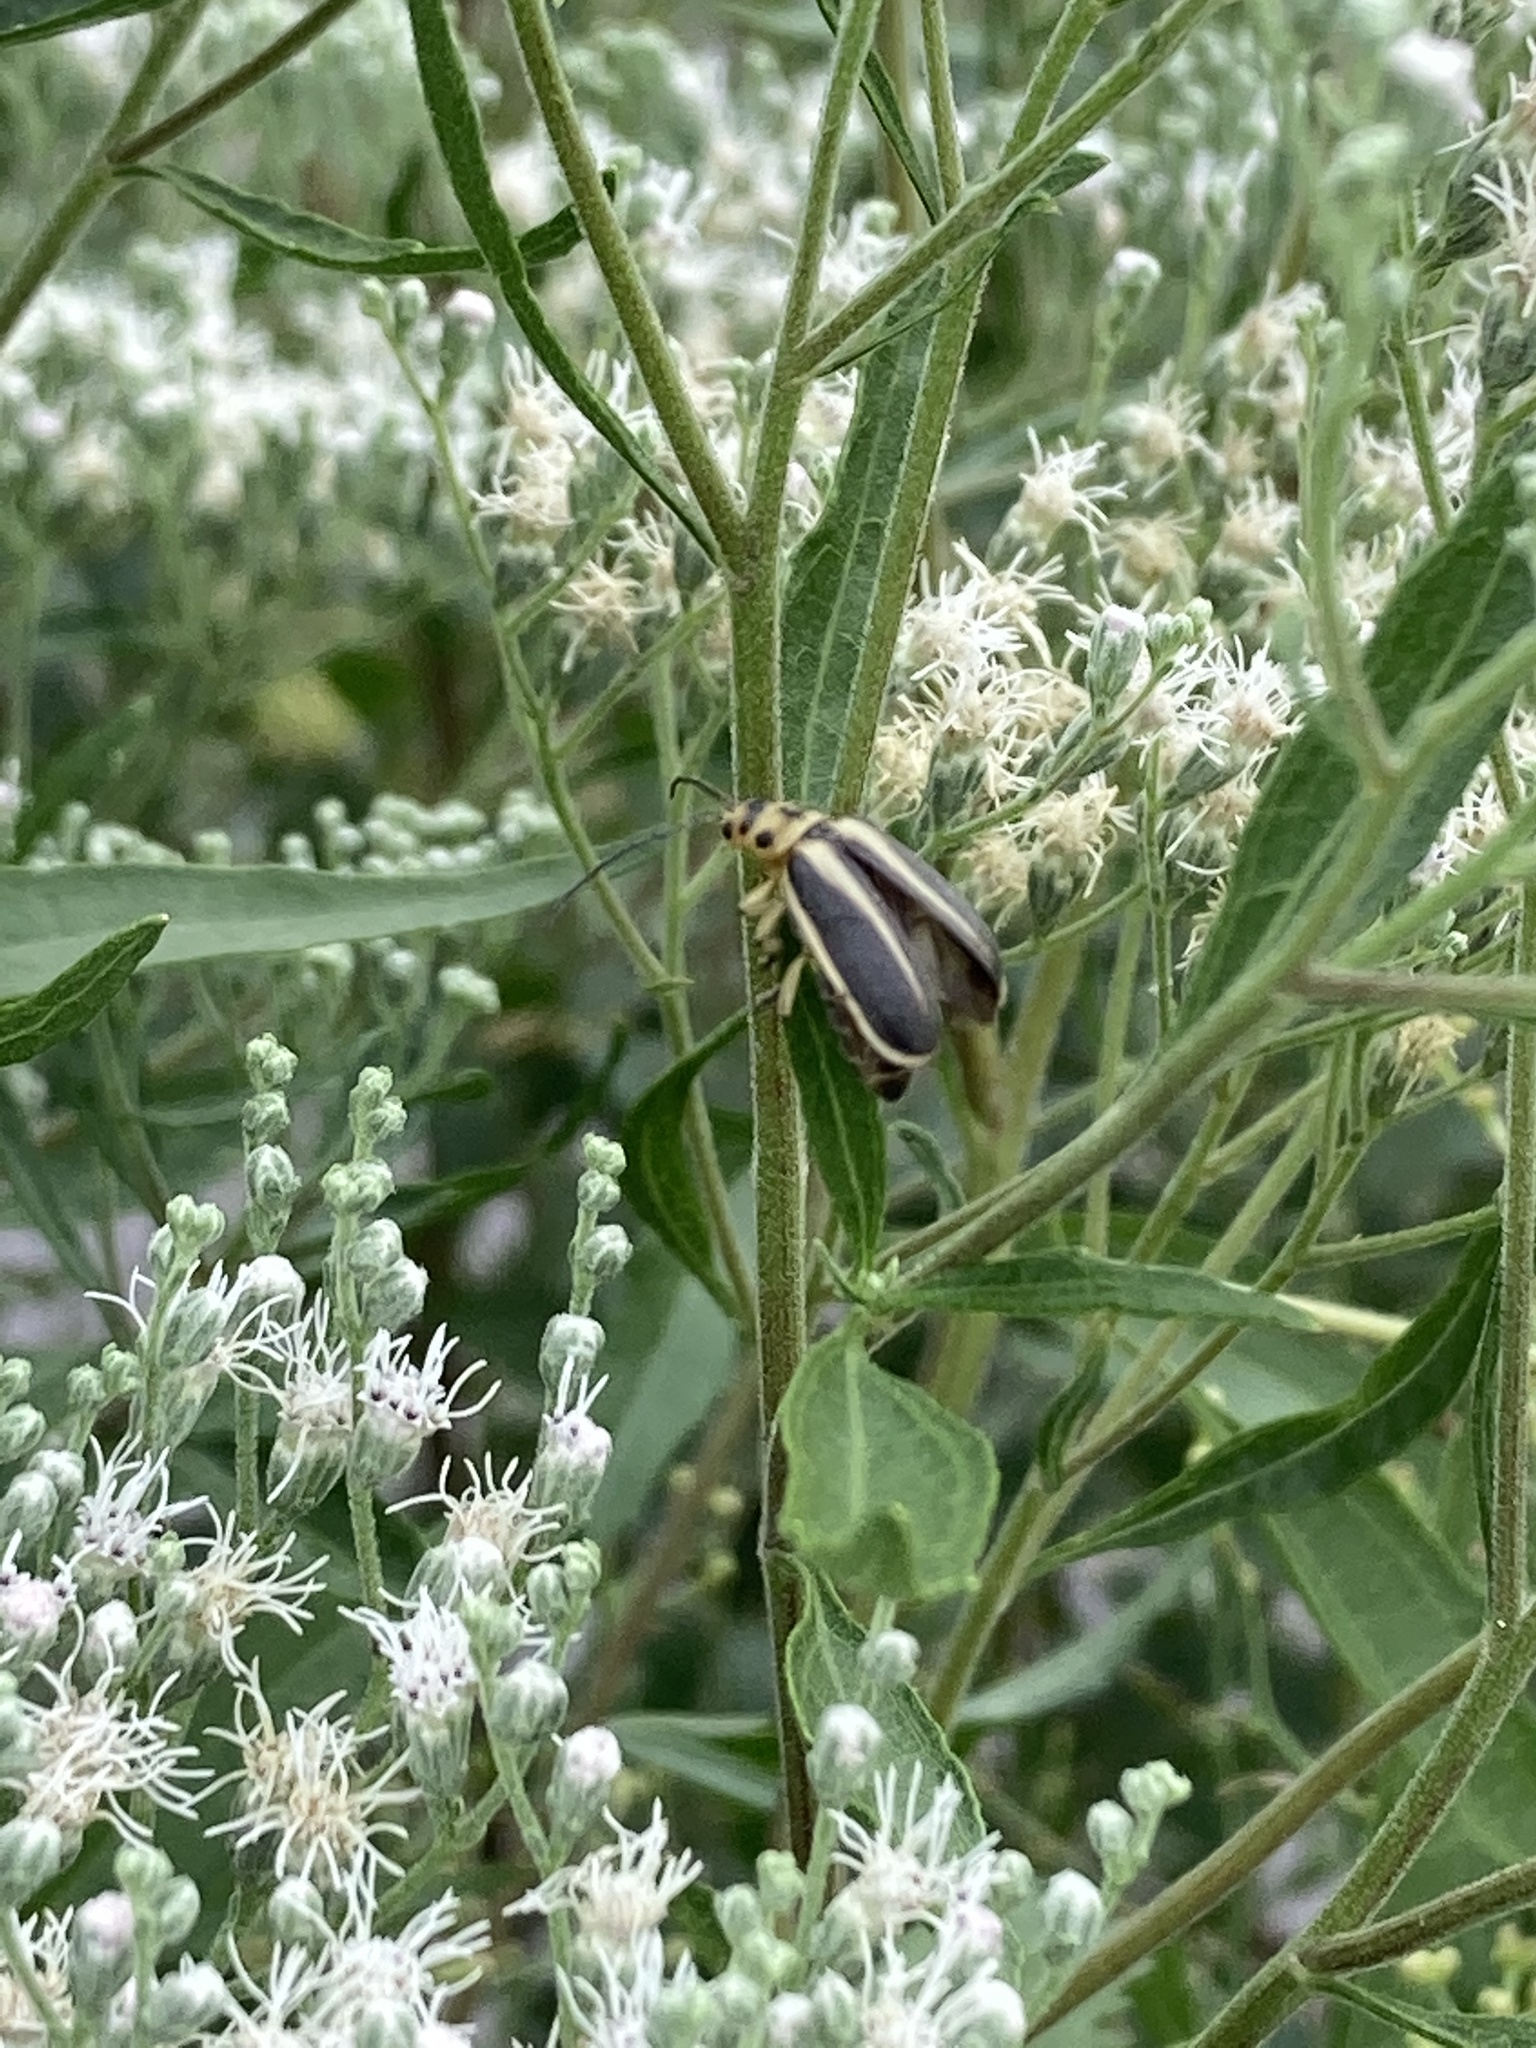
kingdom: Animalia
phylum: Arthropoda
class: Insecta
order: Coleoptera
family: Chrysomelidae
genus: Trirhabda
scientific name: Trirhabda bacharidis
